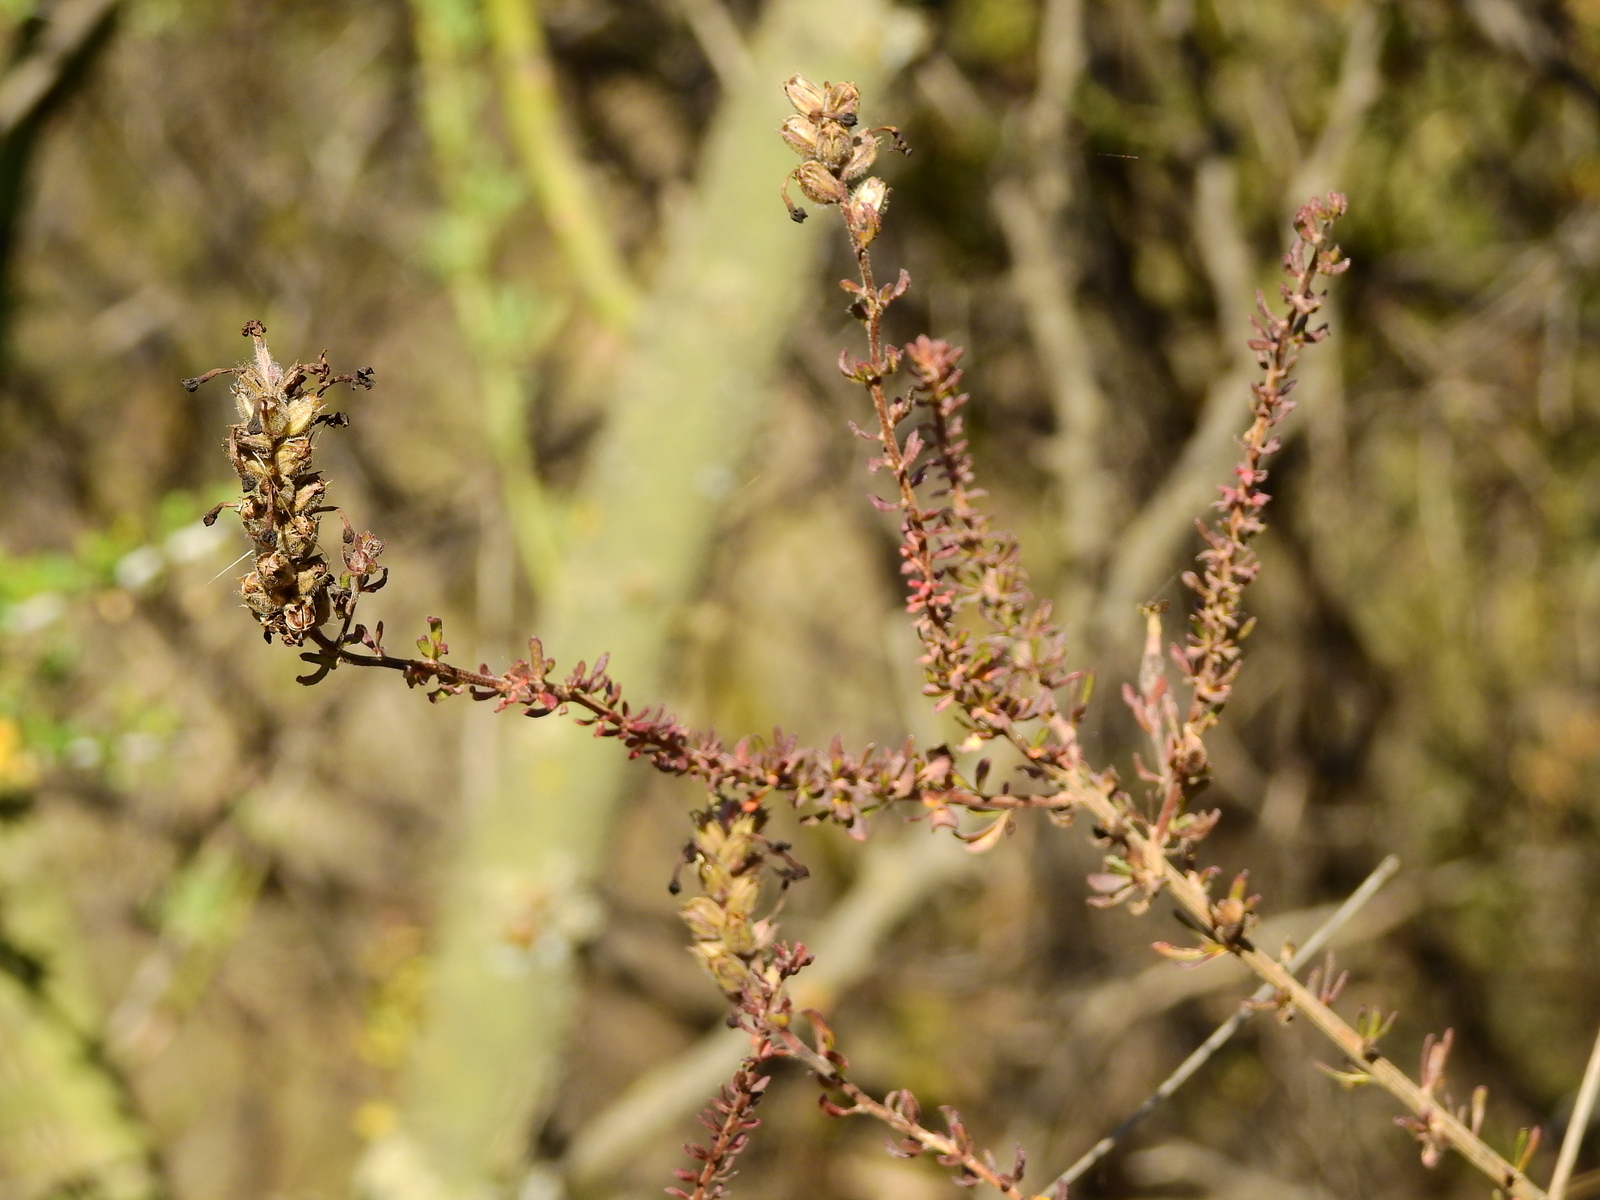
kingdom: Plantae
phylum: Tracheophyta
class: Magnoliopsida
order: Lamiales
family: Verbenaceae
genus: Mulguraea
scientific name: Mulguraea aspera
